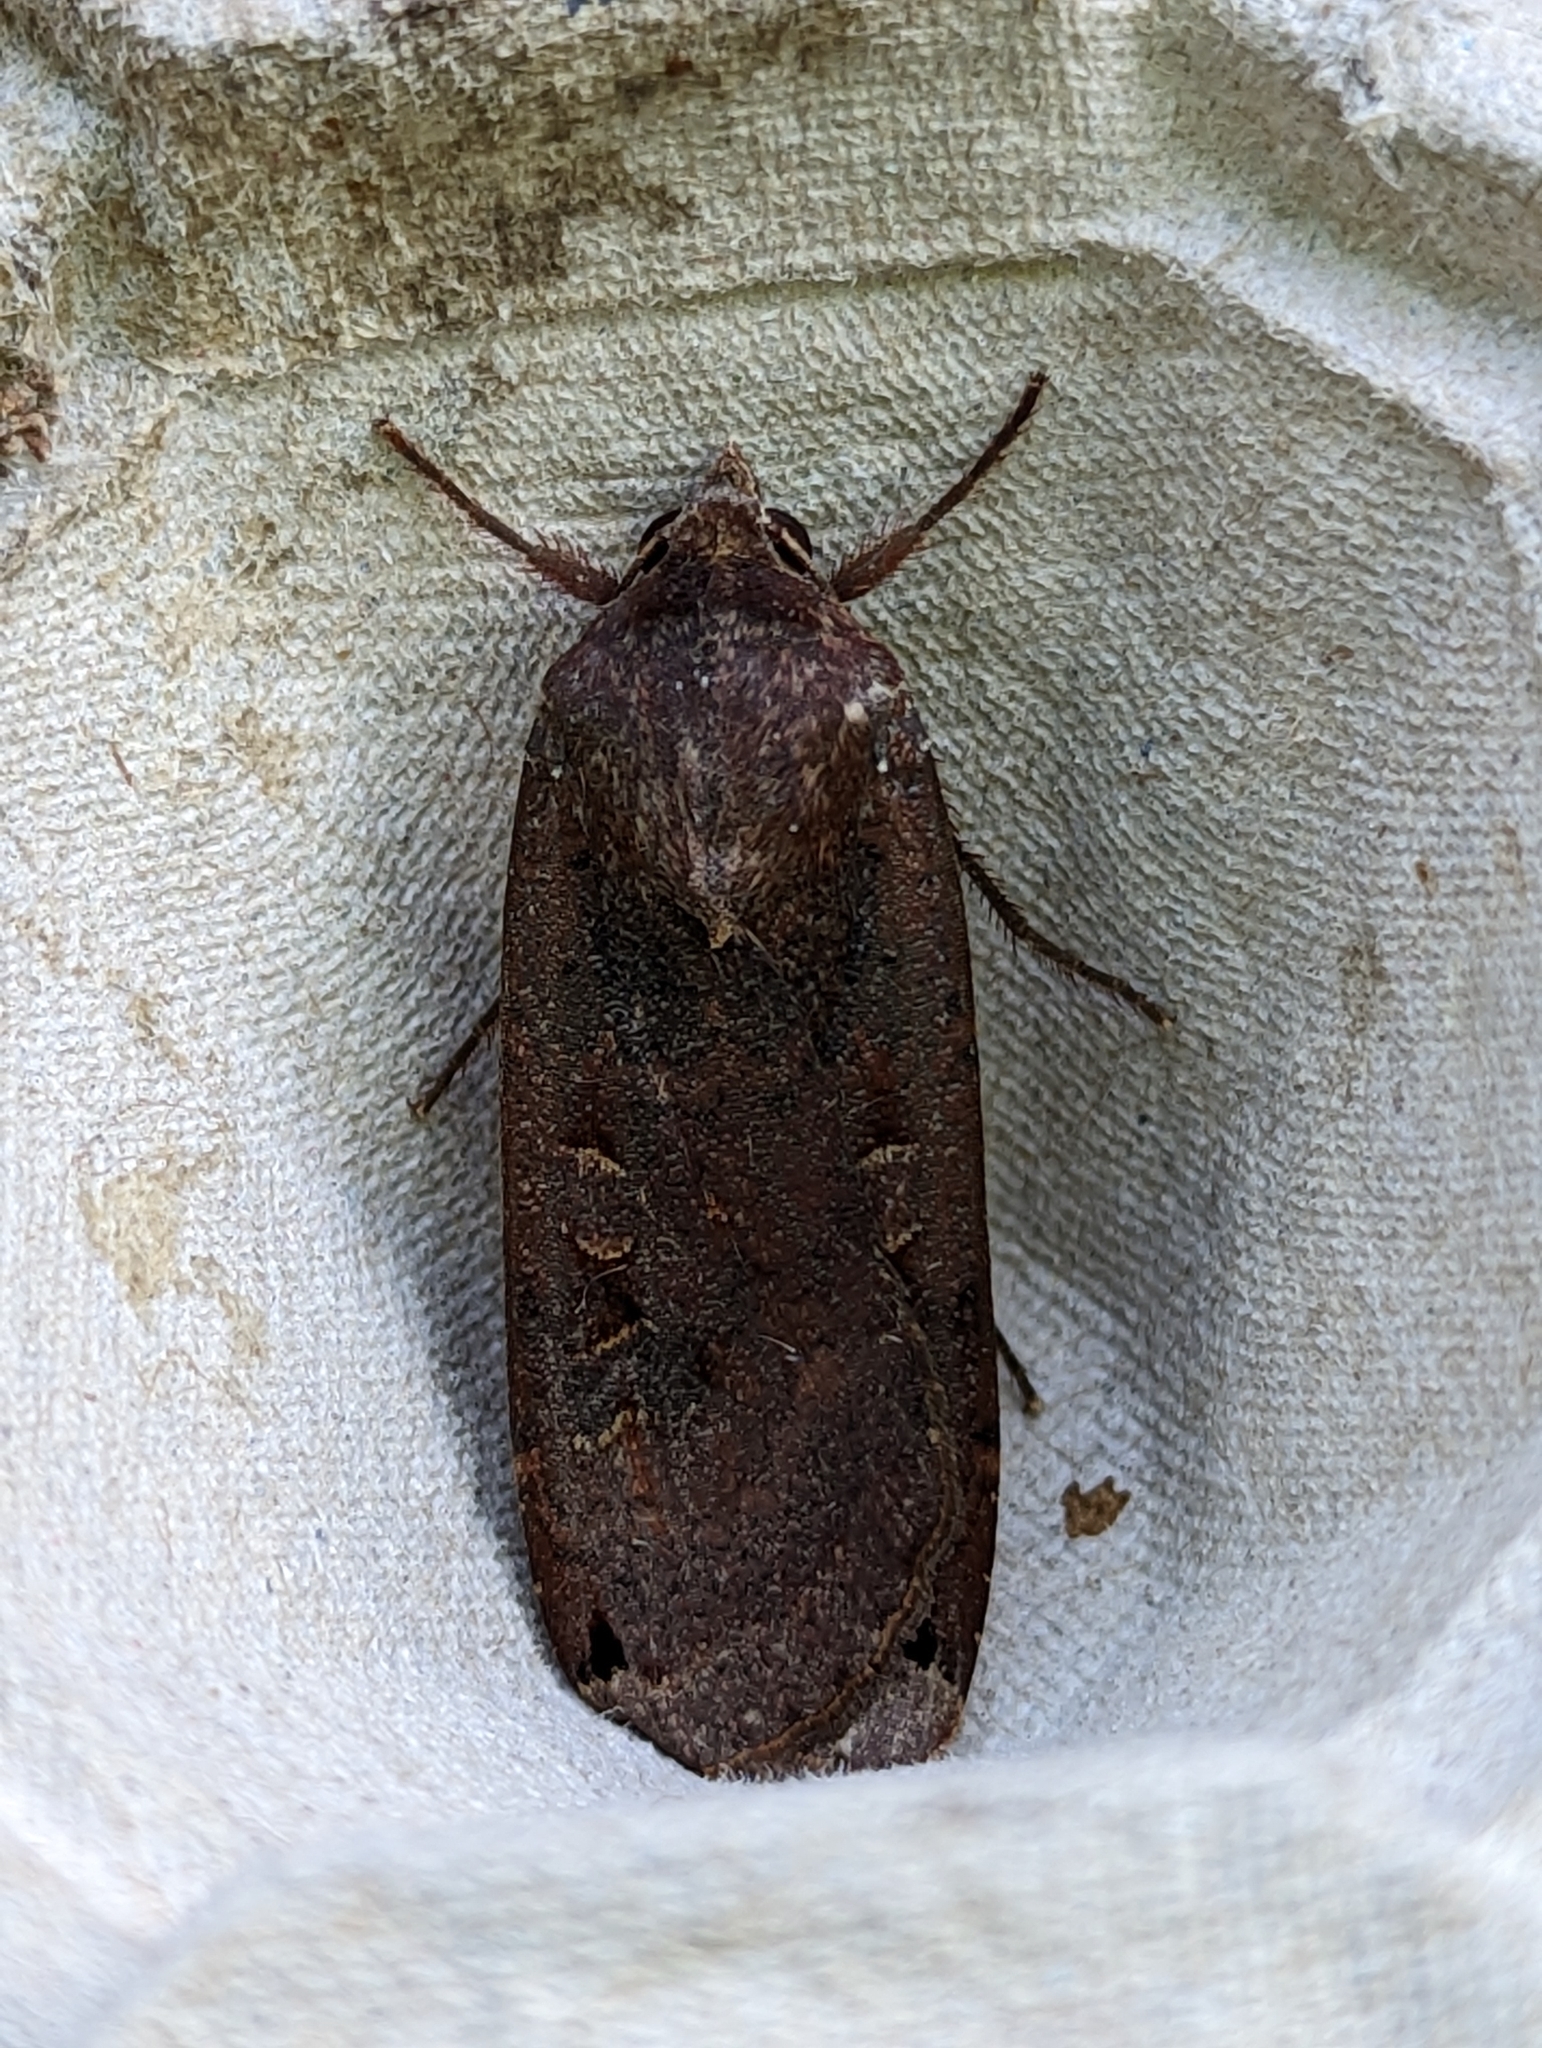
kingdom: Animalia
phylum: Arthropoda
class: Insecta
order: Lepidoptera
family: Noctuidae
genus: Noctua
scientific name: Noctua pronuba
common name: Large yellow underwing
